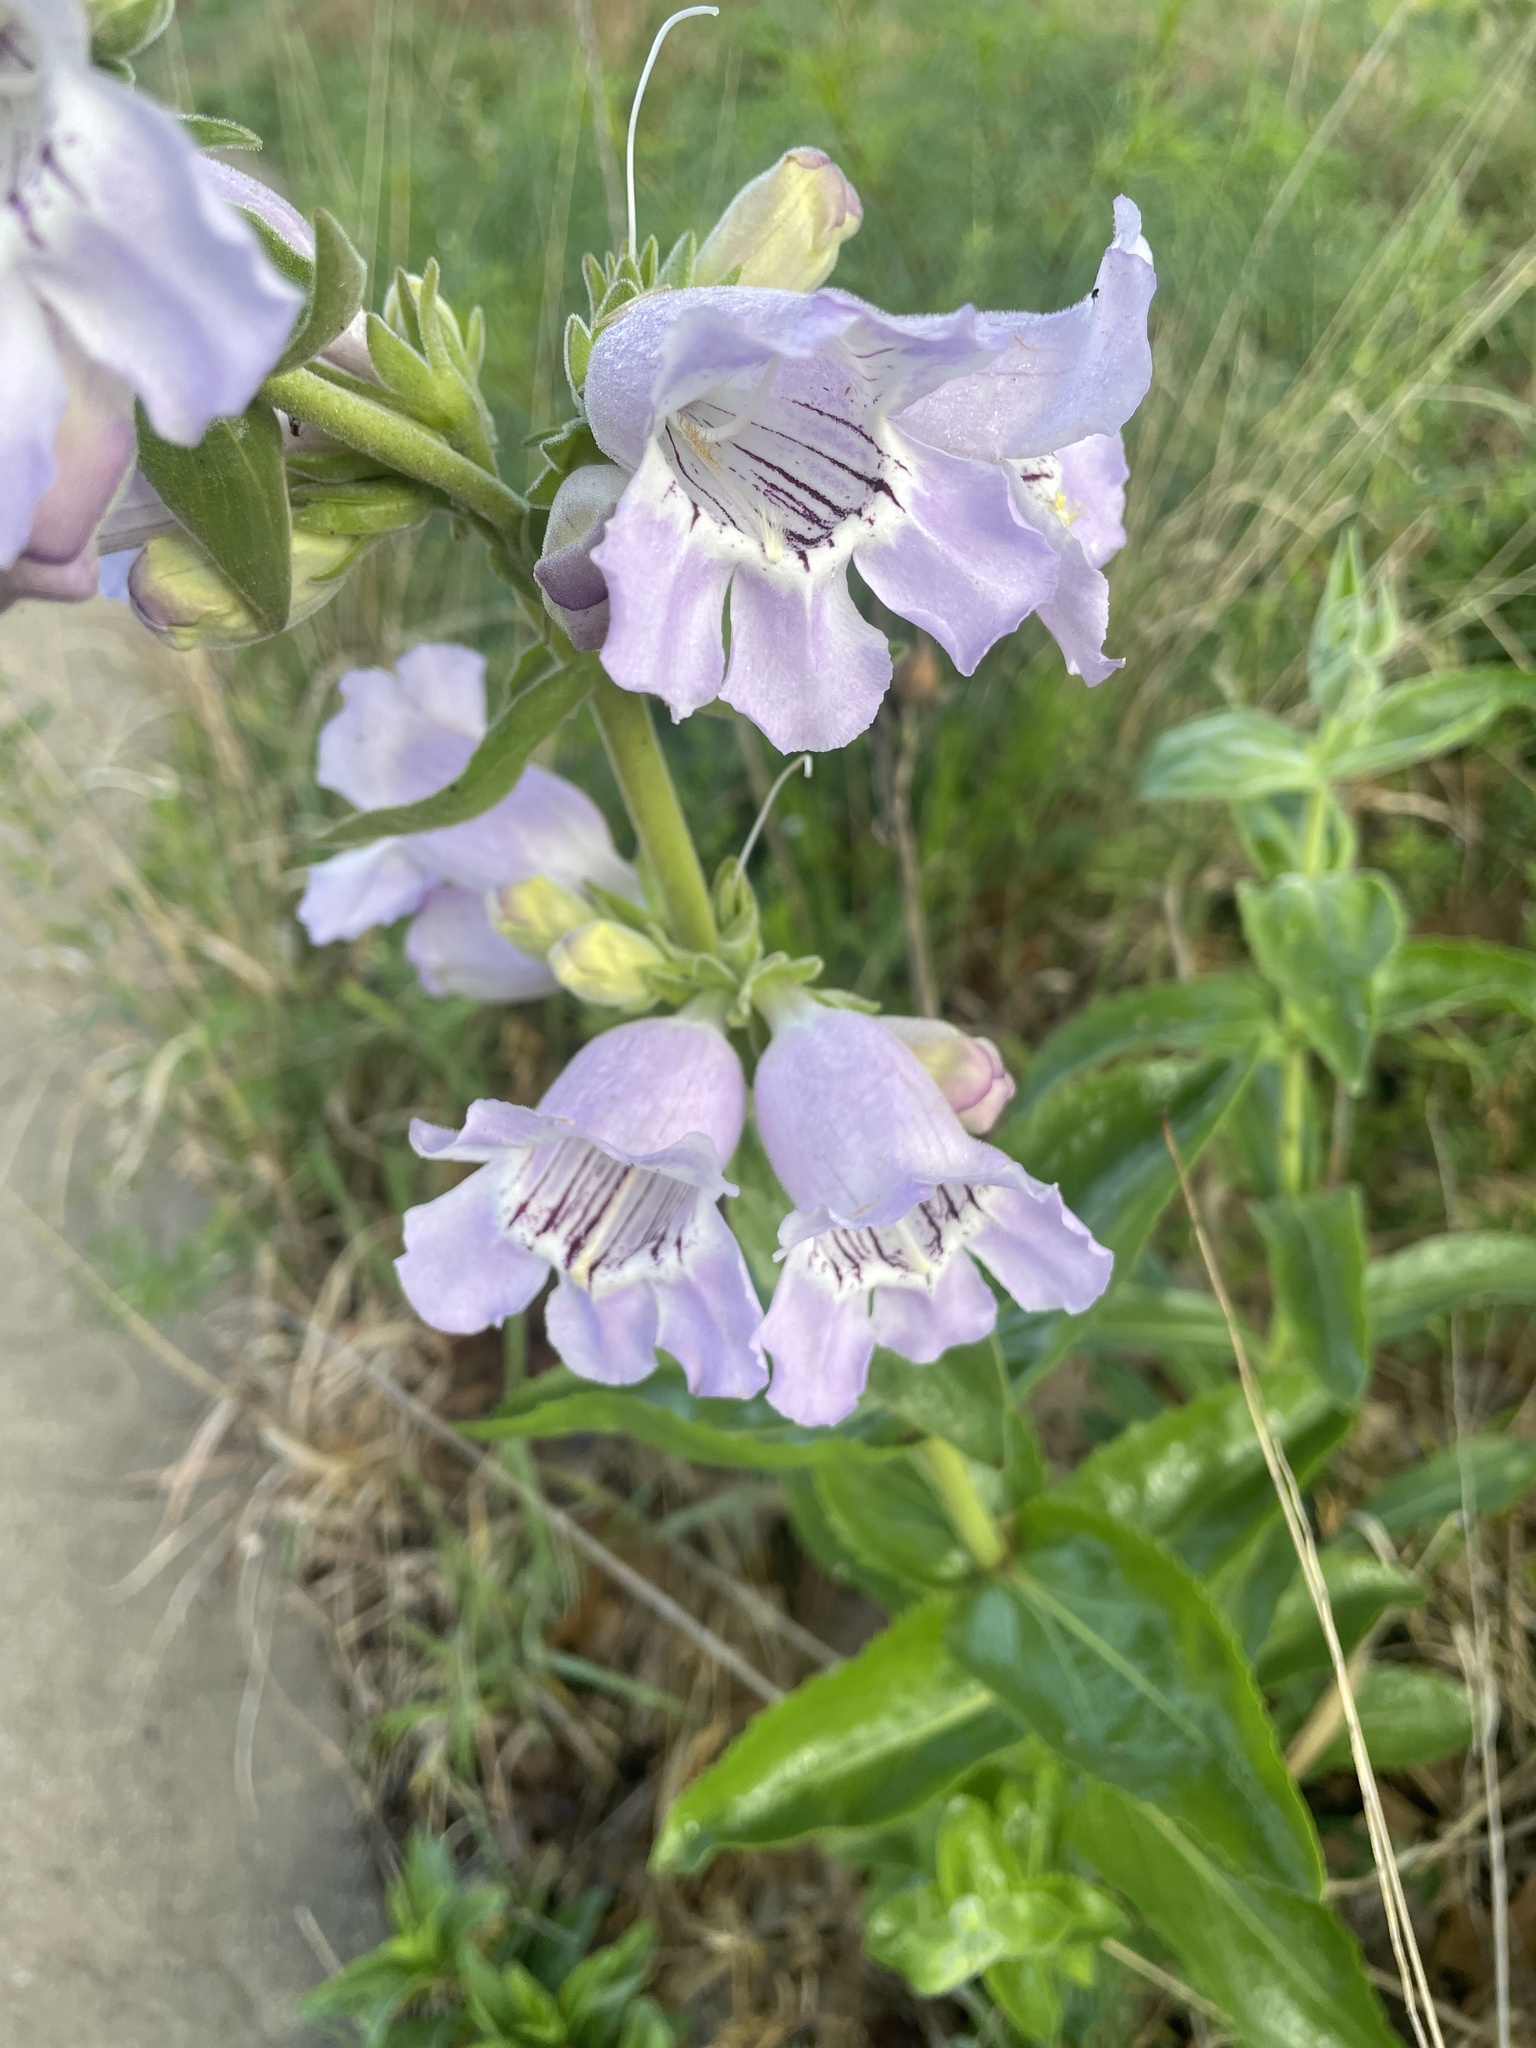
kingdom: Plantae
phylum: Tracheophyta
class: Magnoliopsida
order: Lamiales
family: Plantaginaceae
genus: Penstemon
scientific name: Penstemon cobaea
